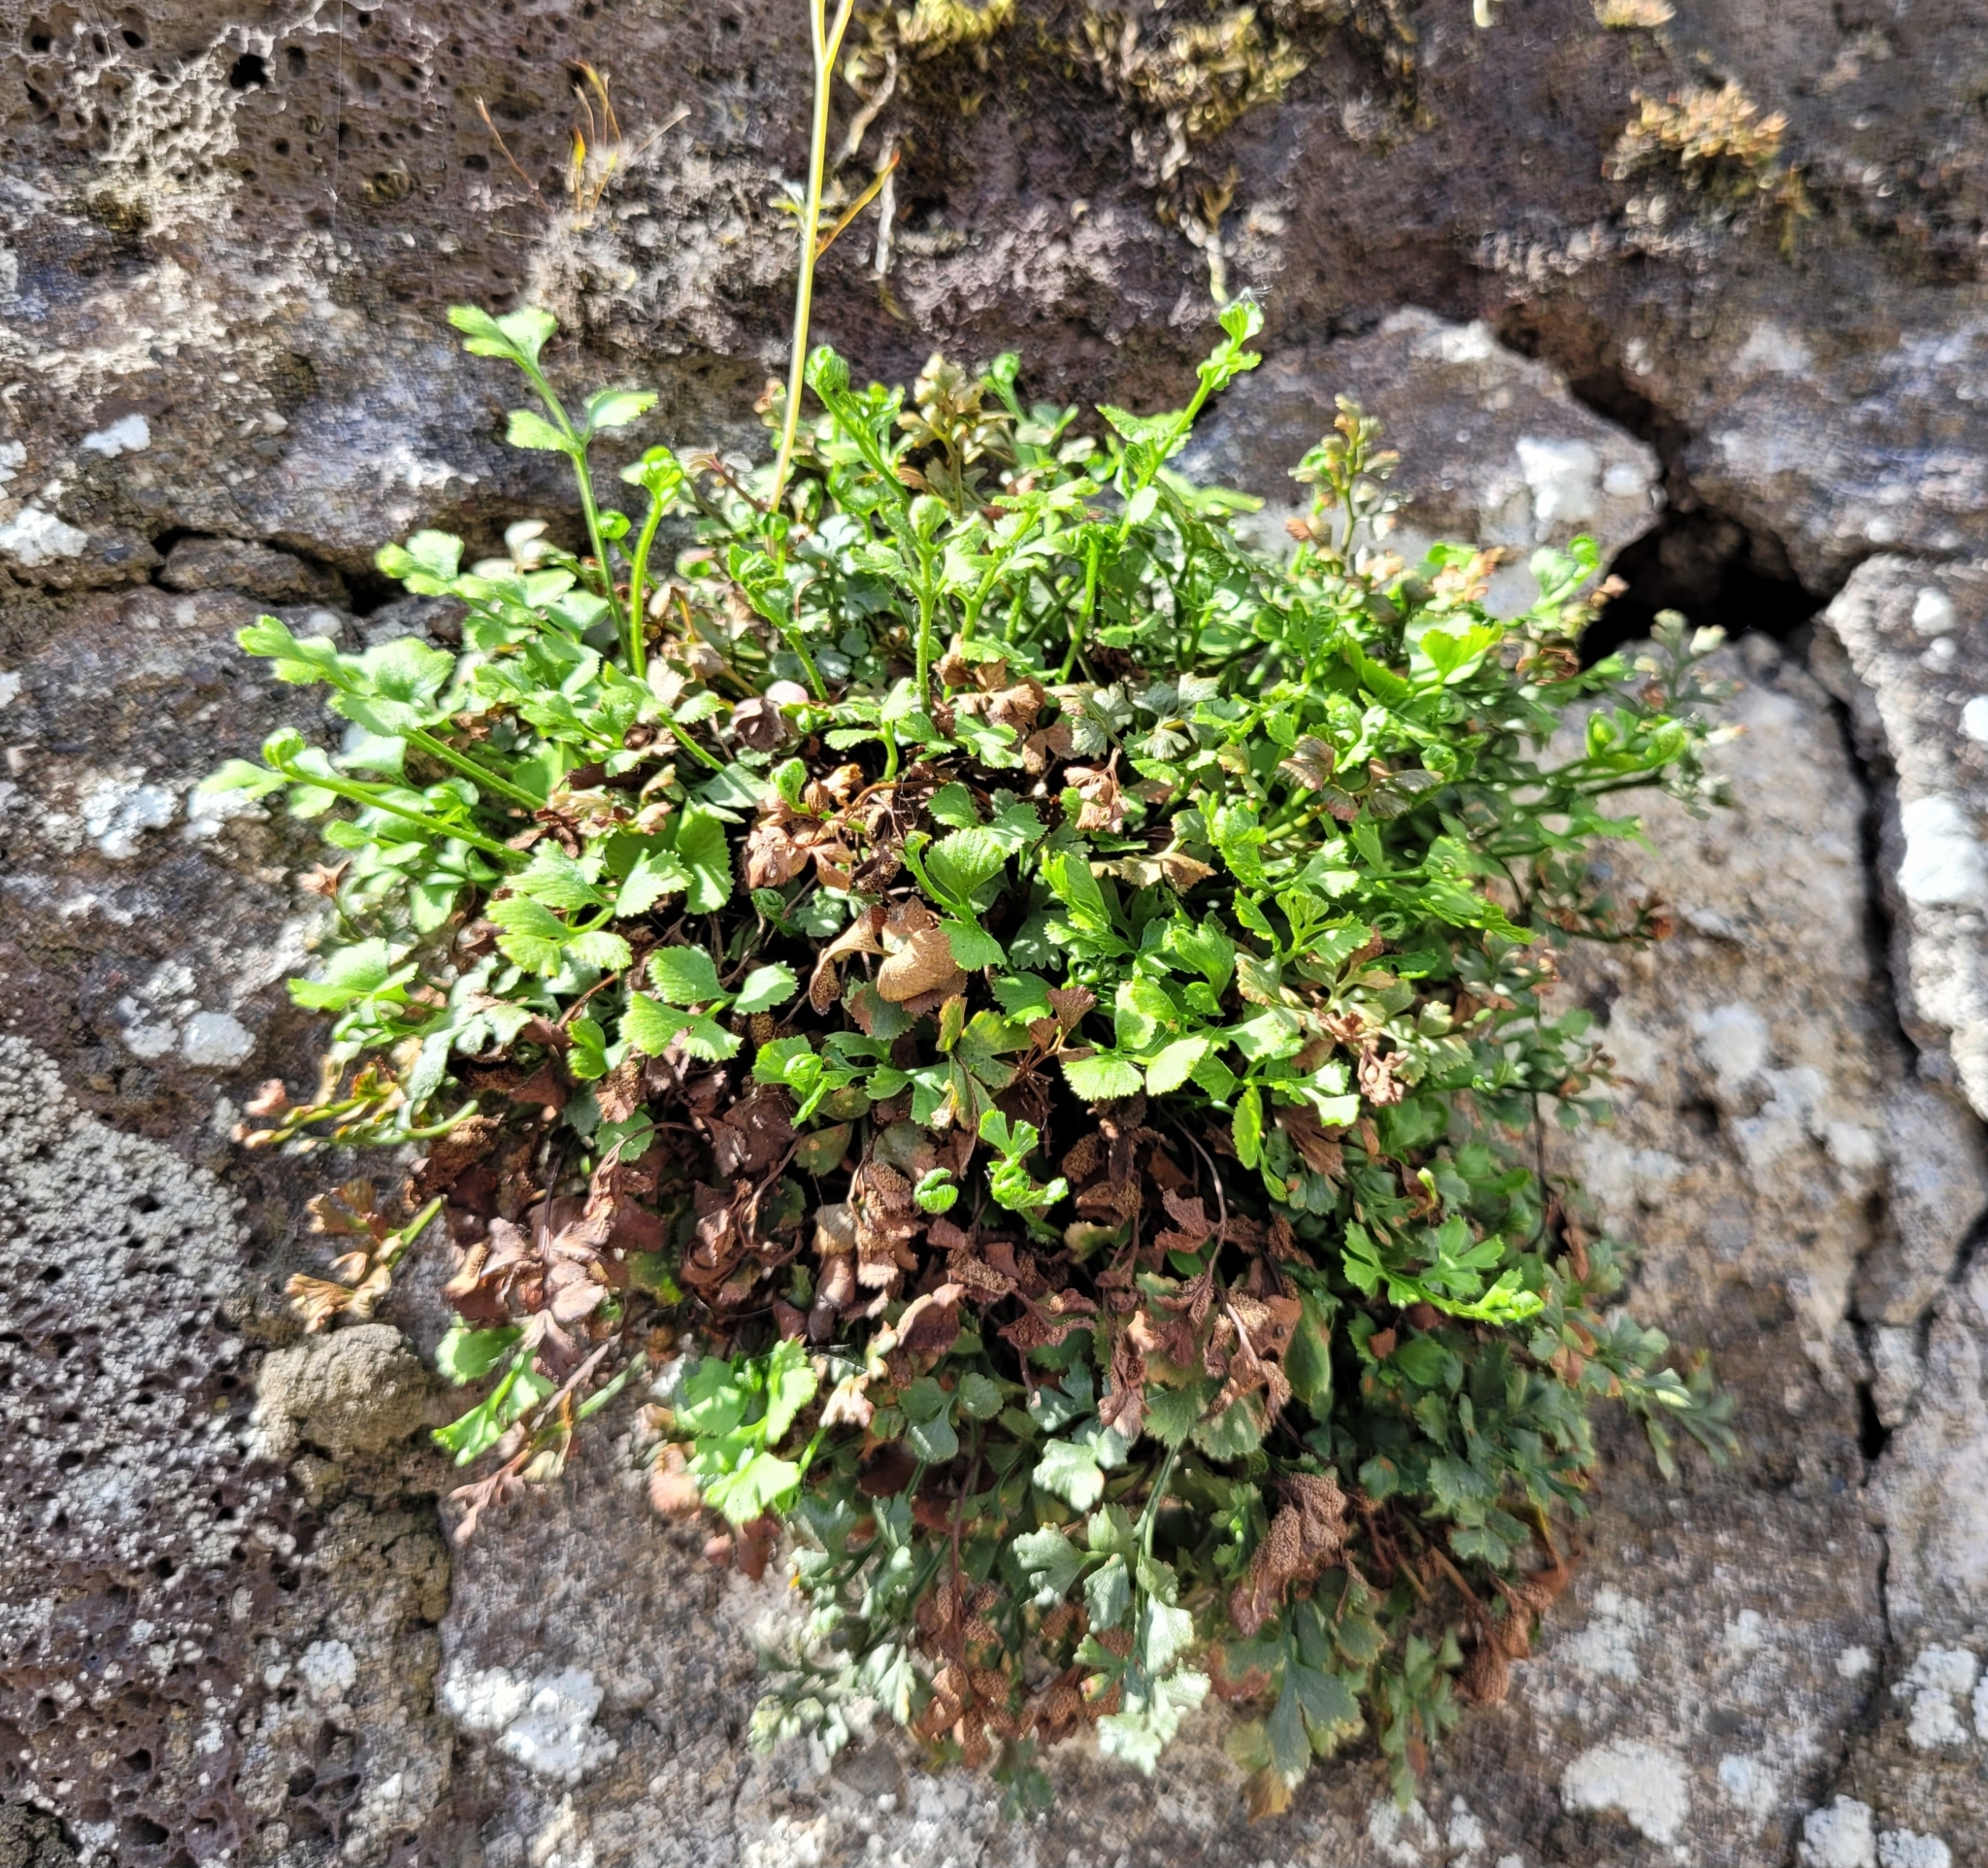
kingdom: Plantae
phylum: Tracheophyta
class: Polypodiopsida
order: Polypodiales
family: Aspleniaceae
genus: Asplenium
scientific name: Asplenium ruta-muraria
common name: Wall-rue
